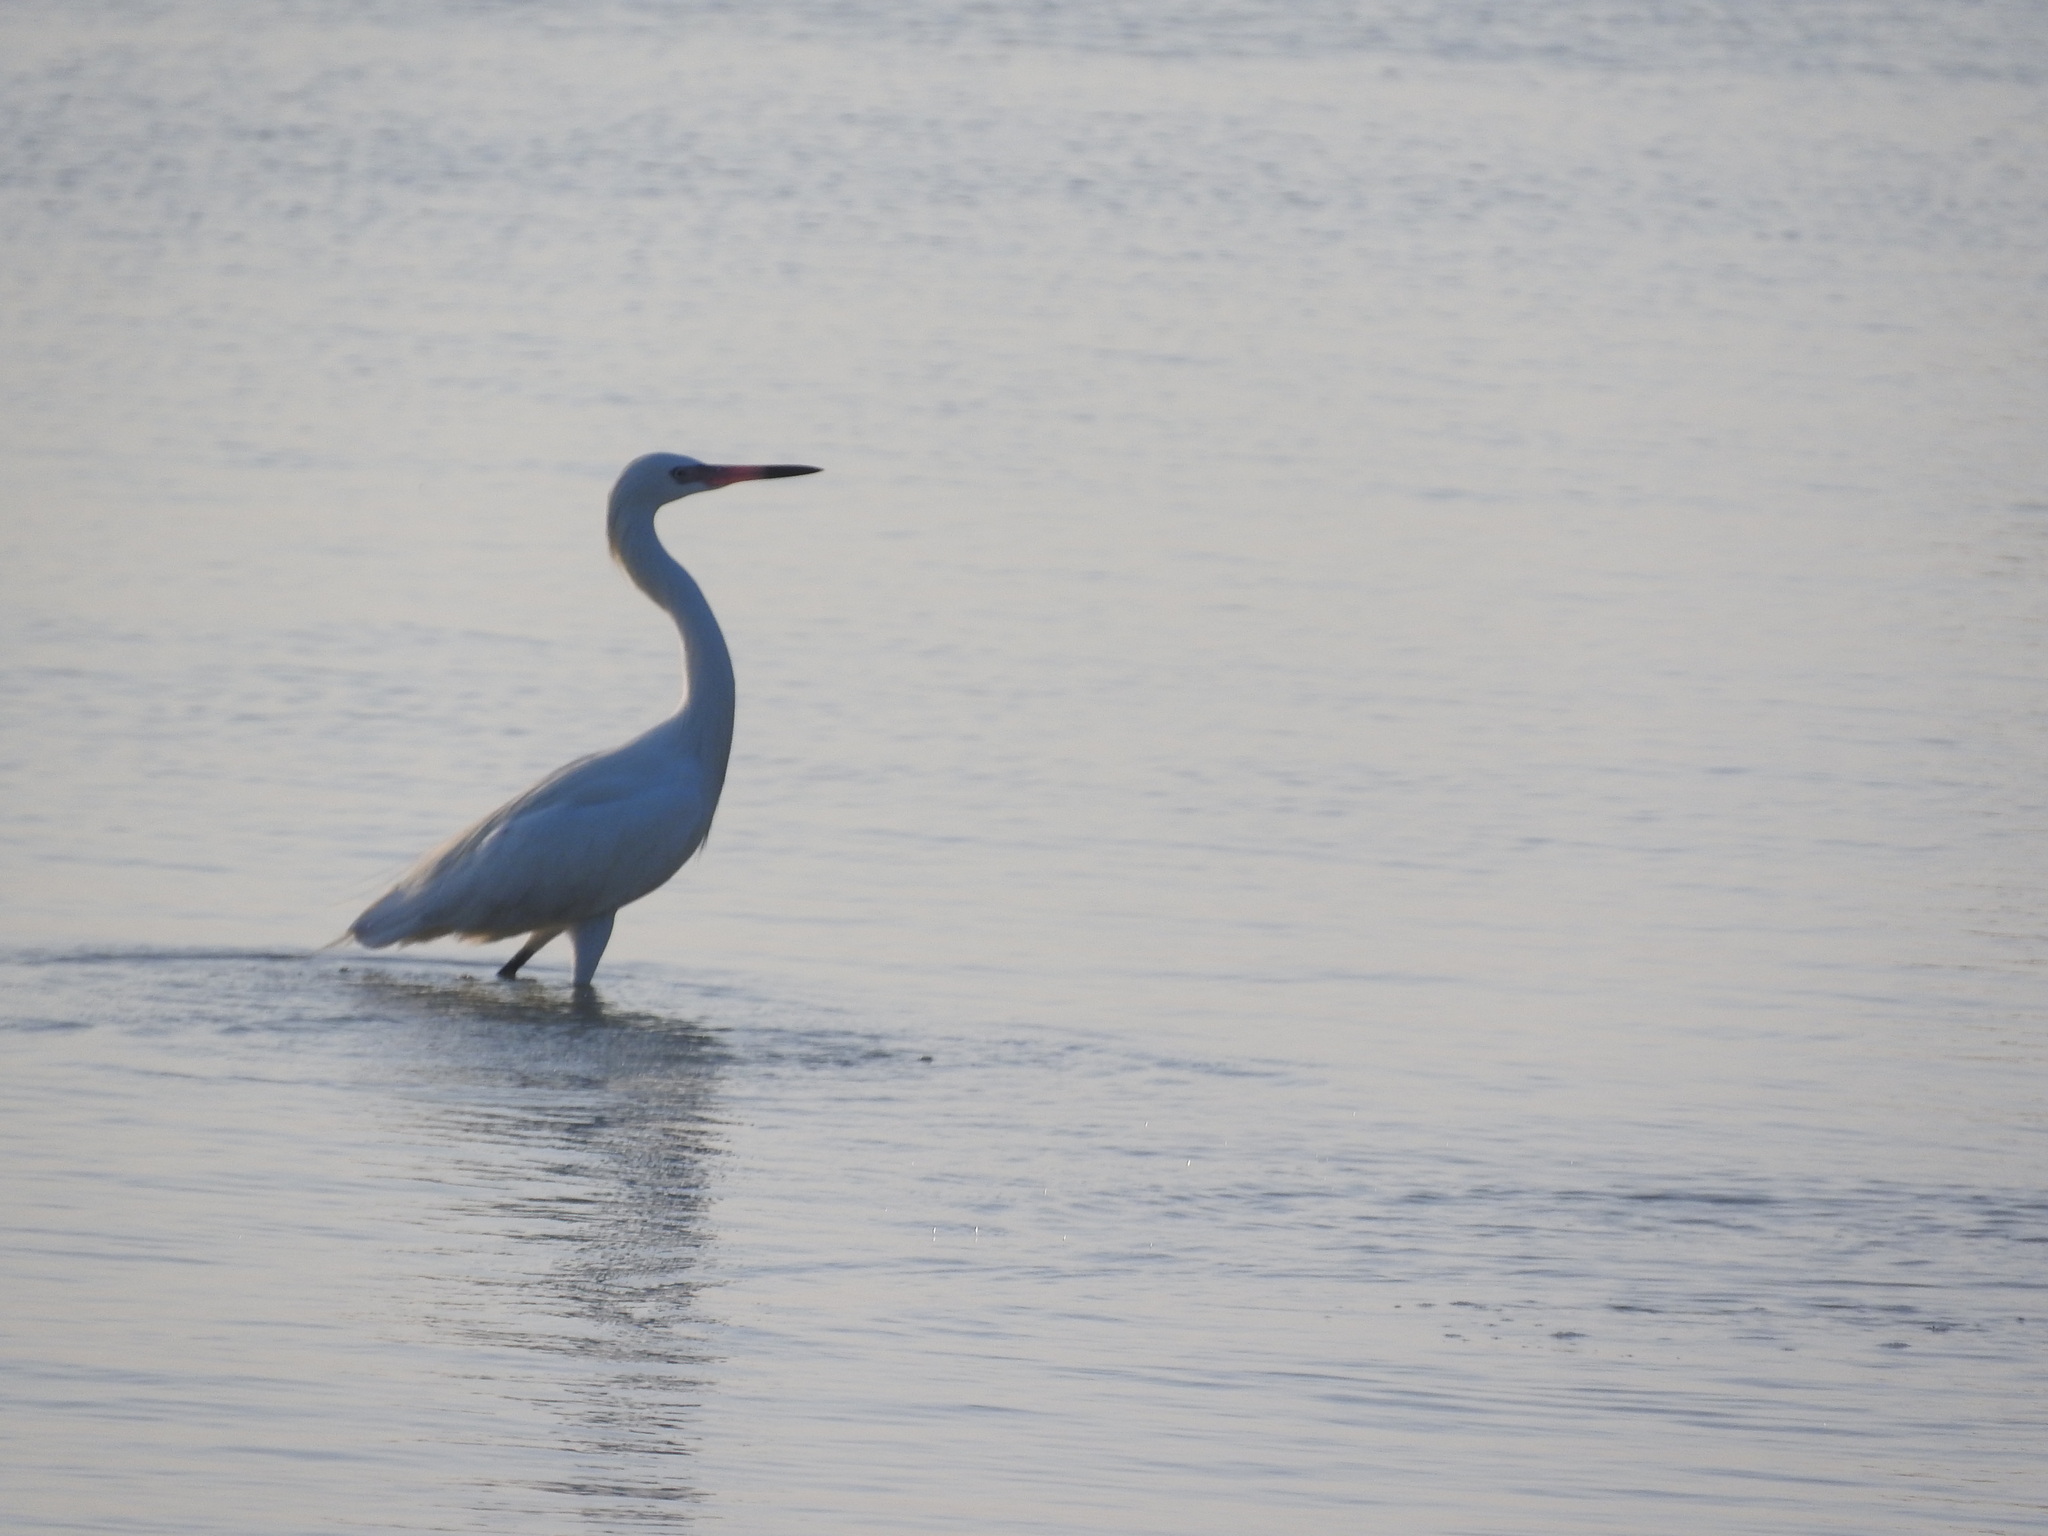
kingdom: Animalia
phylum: Chordata
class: Aves
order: Pelecaniformes
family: Ardeidae
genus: Egretta
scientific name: Egretta rufescens
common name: Reddish egret
